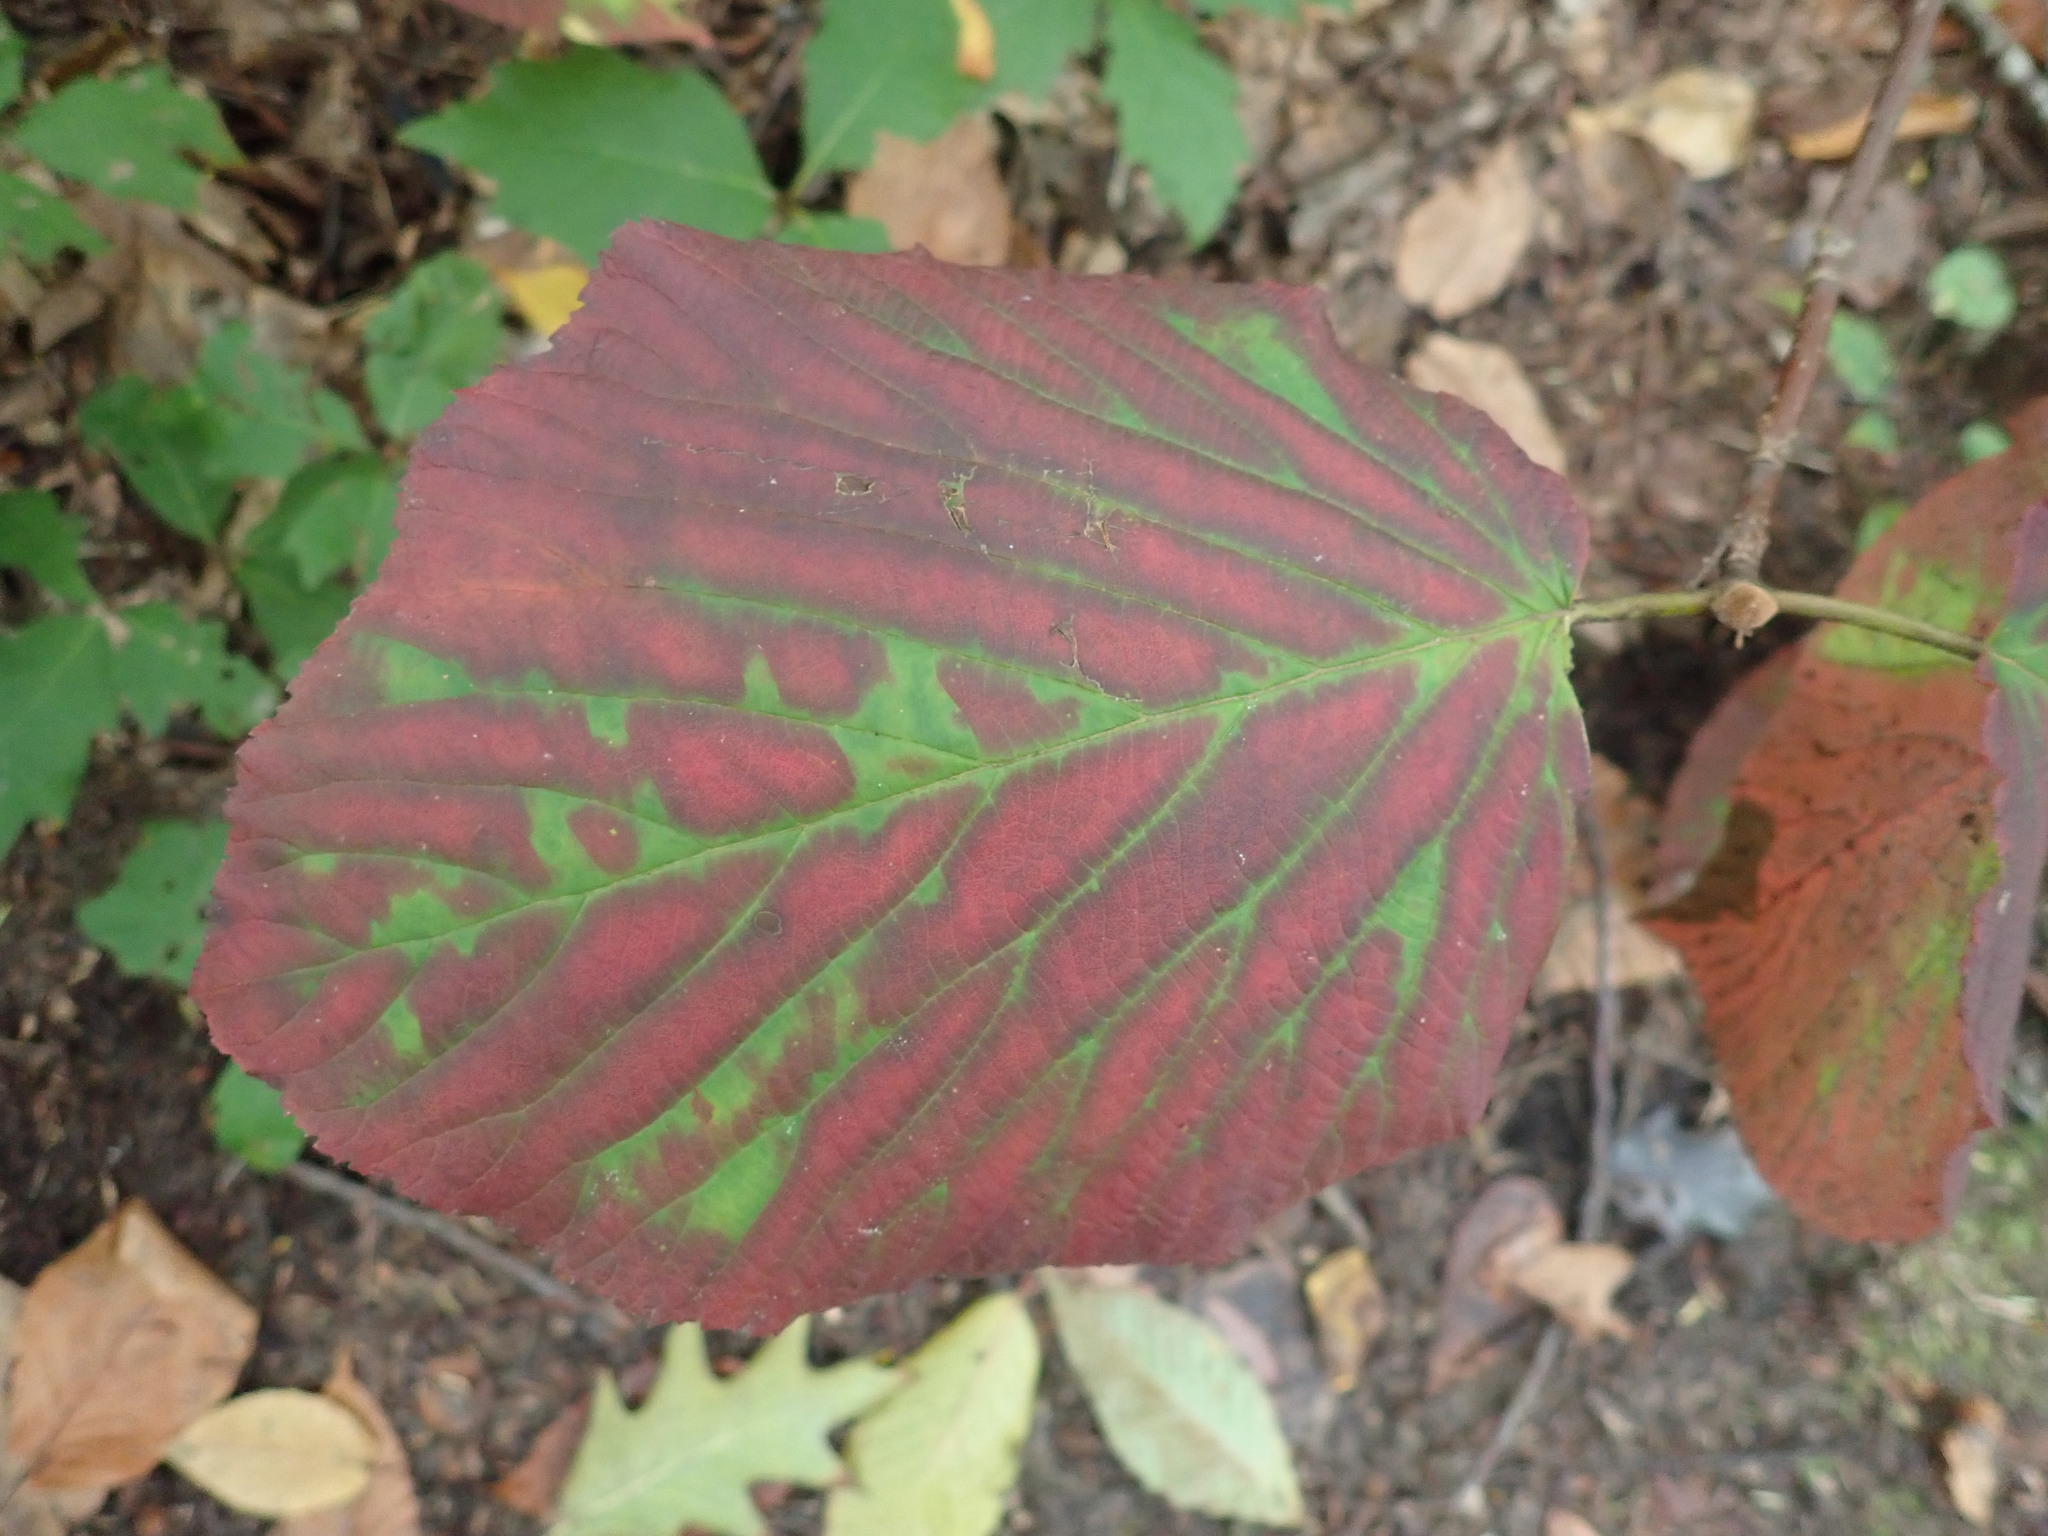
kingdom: Plantae
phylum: Tracheophyta
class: Magnoliopsida
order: Dipsacales
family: Viburnaceae
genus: Viburnum
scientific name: Viburnum lantanoides
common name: Hobblebush
